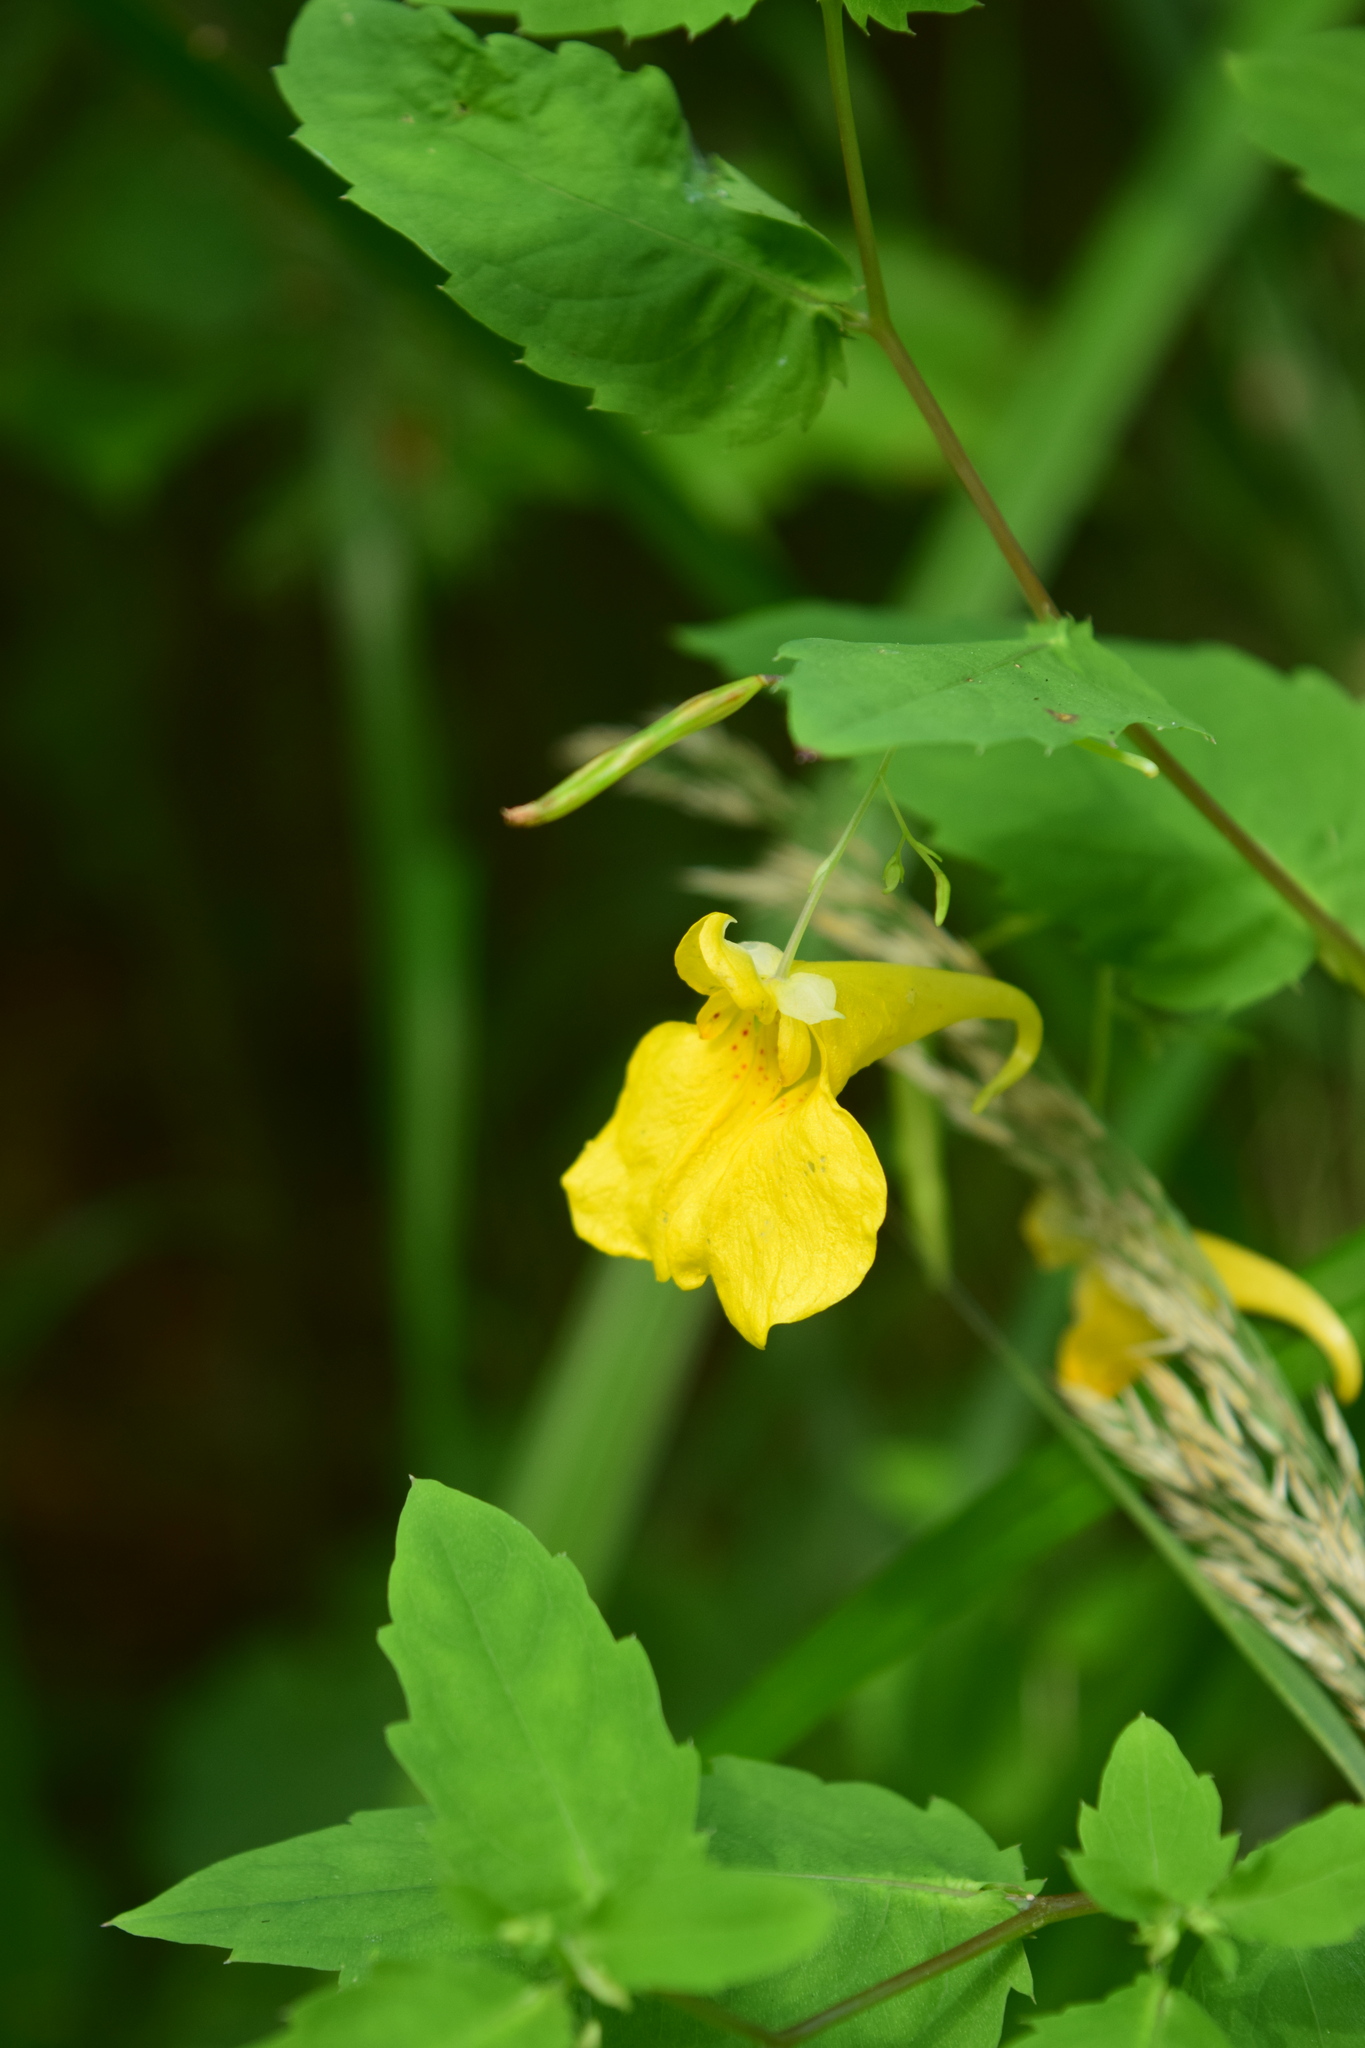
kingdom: Plantae
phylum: Tracheophyta
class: Magnoliopsida
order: Ericales
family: Balsaminaceae
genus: Impatiens
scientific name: Impatiens noli-tangere
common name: Touch-me-not balsam
